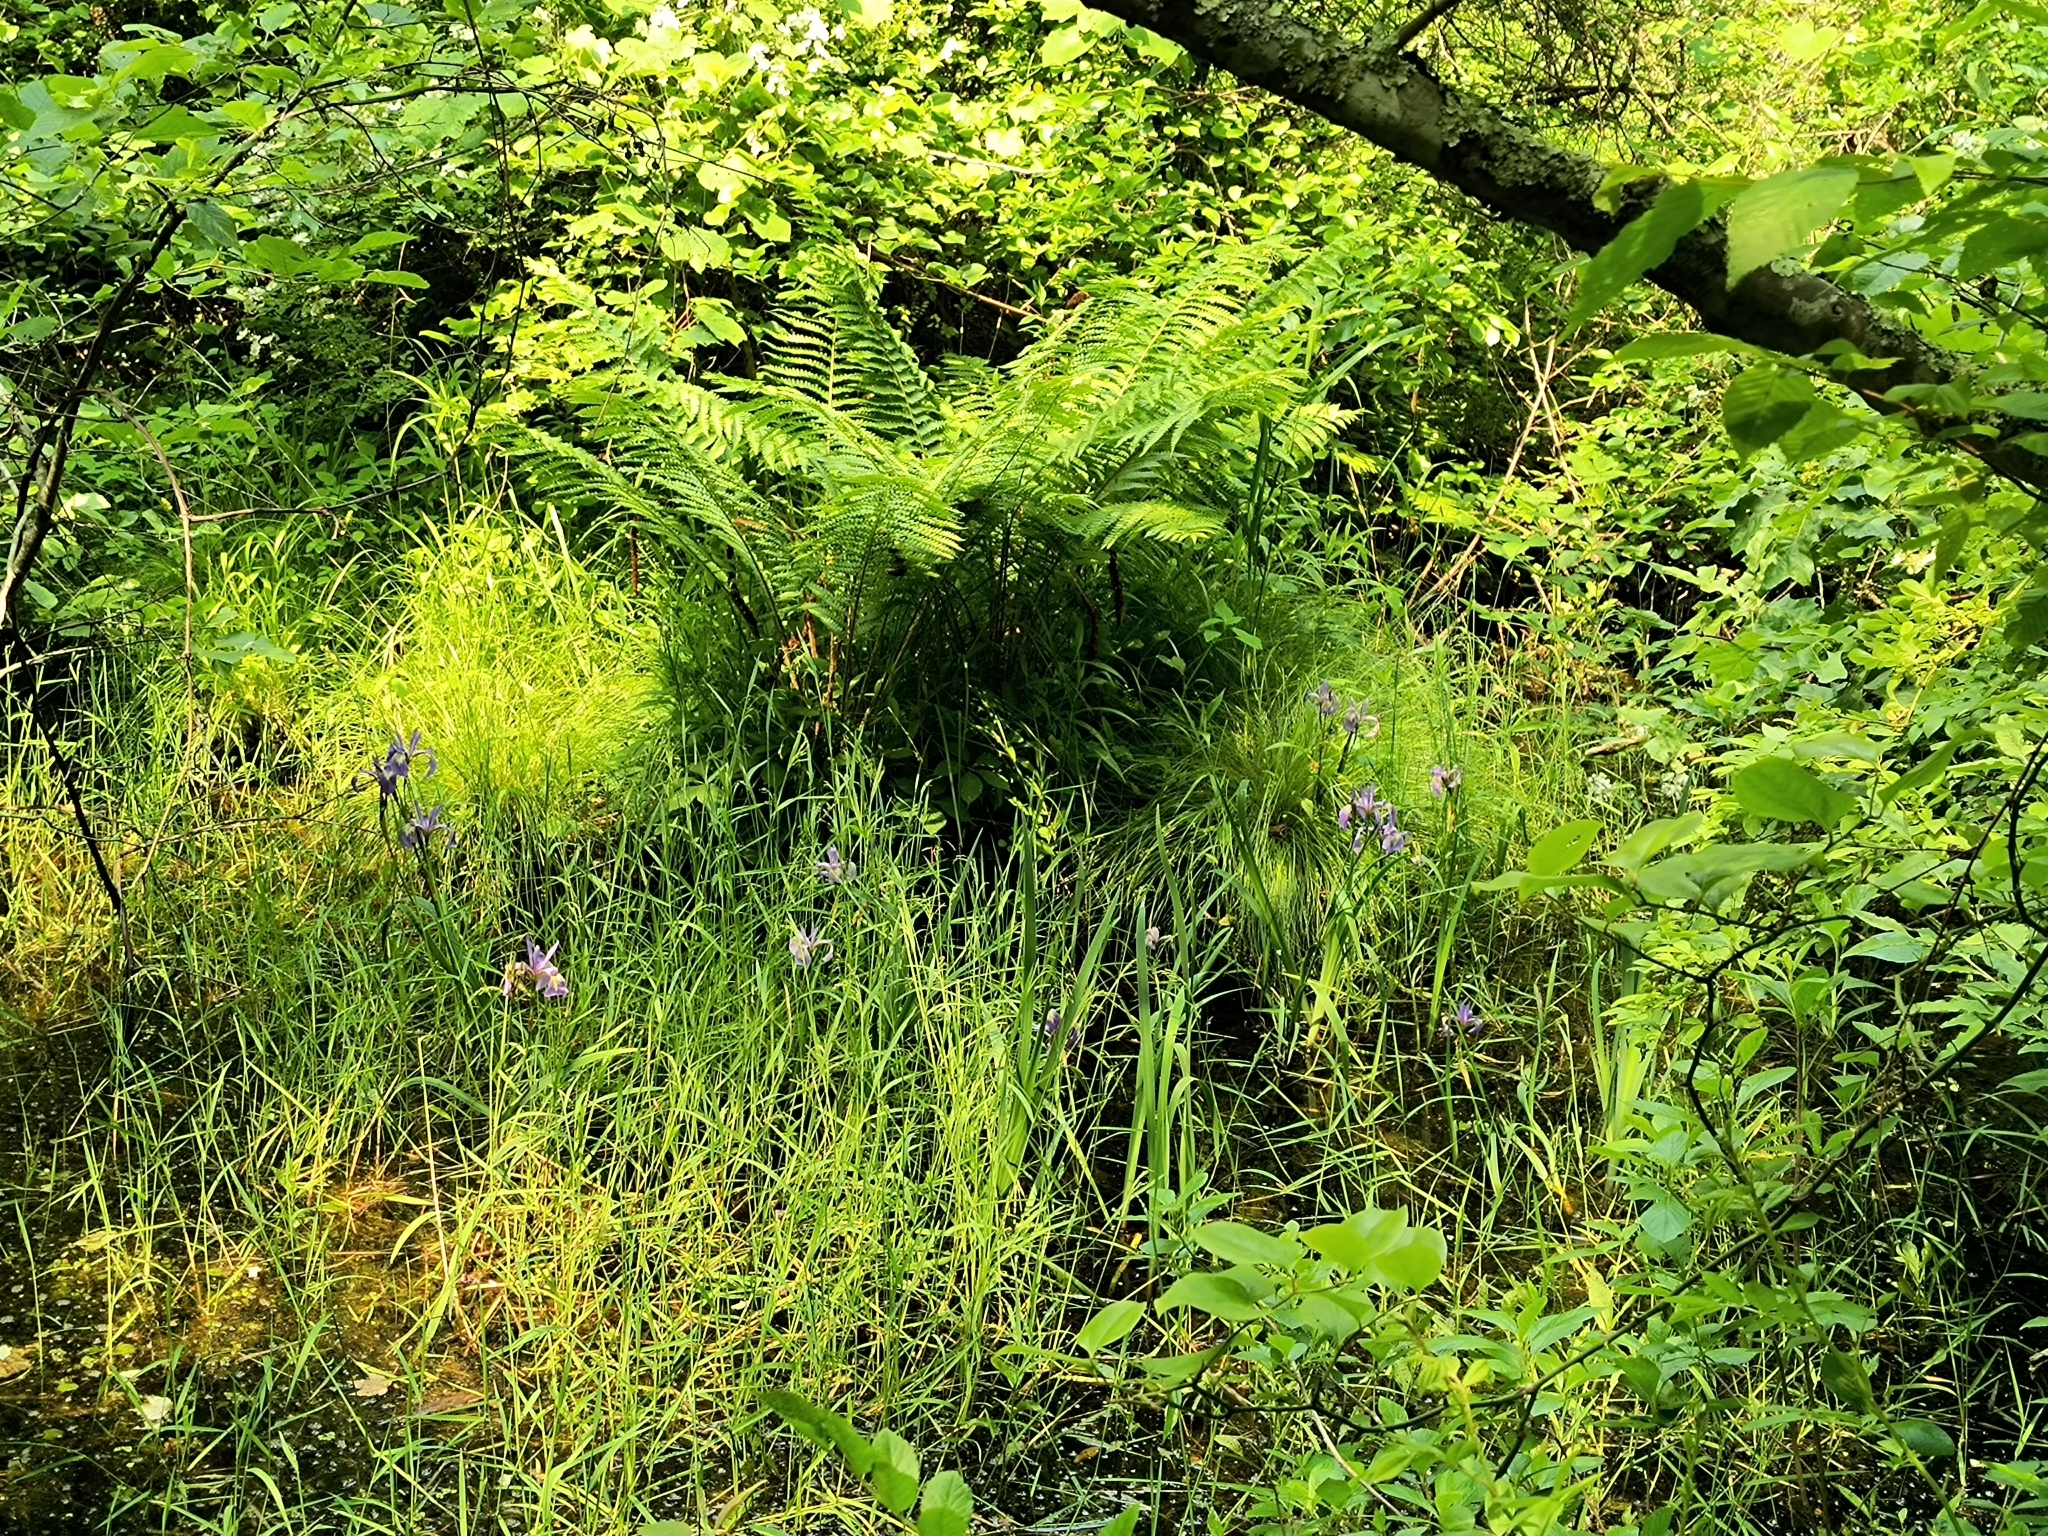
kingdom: Plantae
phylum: Tracheophyta
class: Liliopsida
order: Asparagales
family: Iridaceae
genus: Iris
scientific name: Iris versicolor
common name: Purple iris
